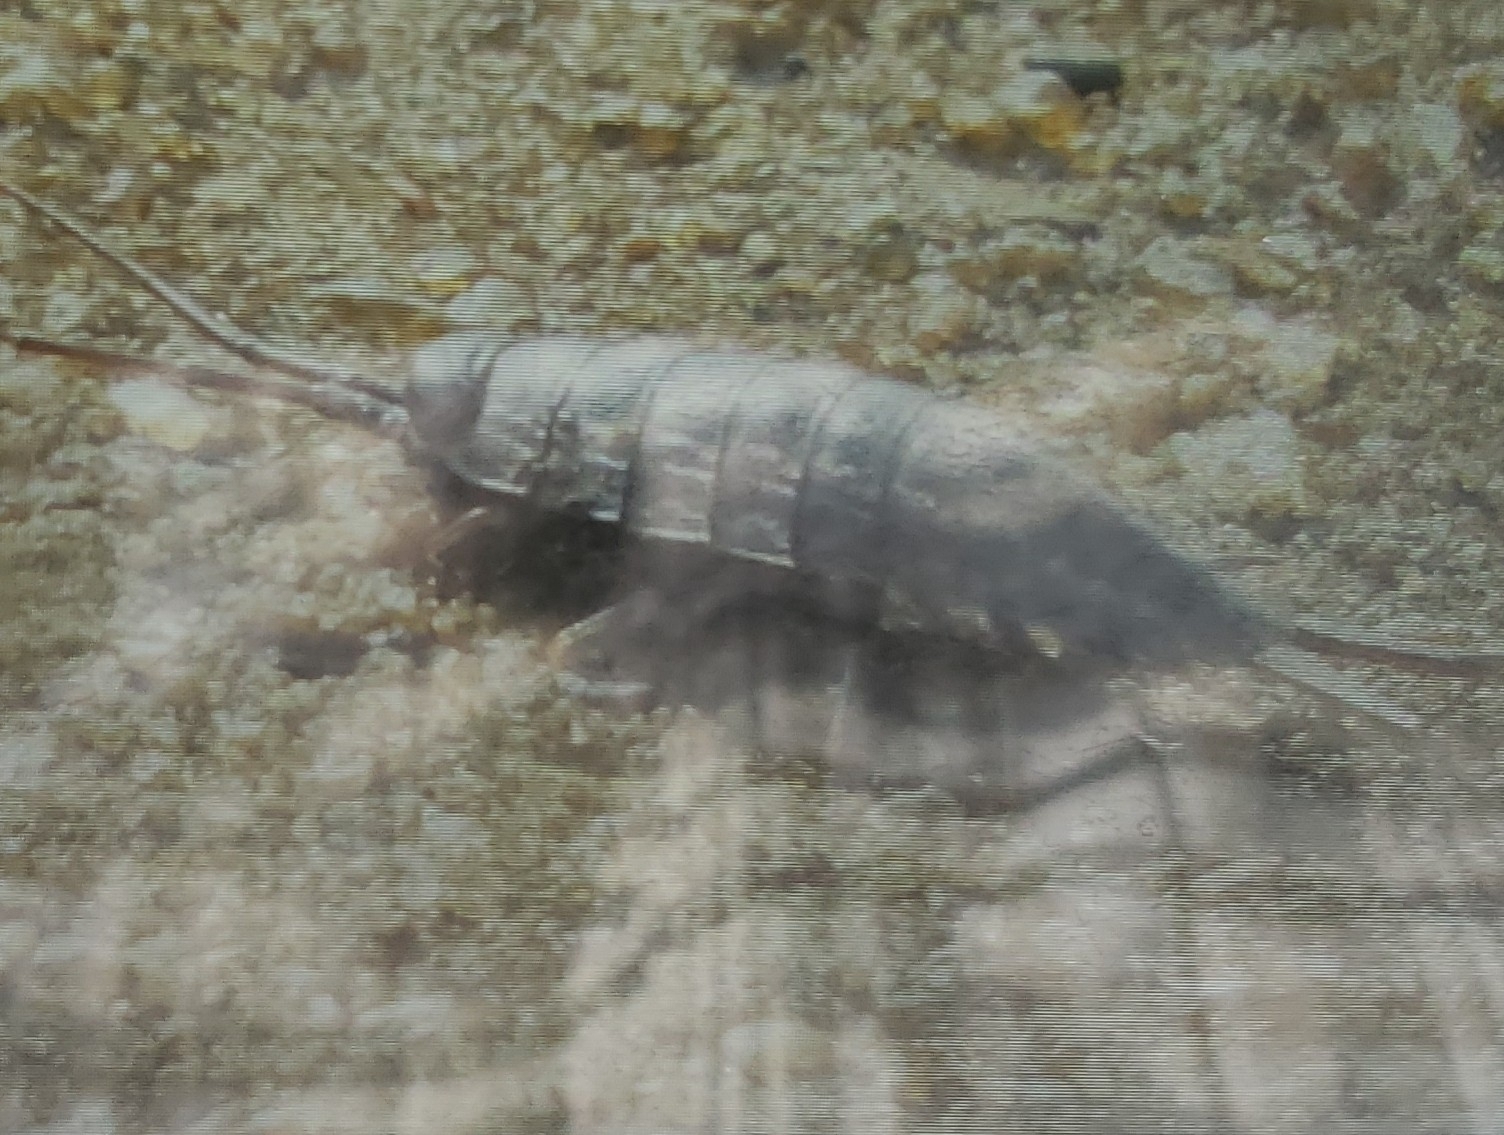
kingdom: Animalia
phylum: Arthropoda
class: Malacostraca
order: Isopoda
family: Ligiidae
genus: Ligia
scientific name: Ligia exotica
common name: Wharf roach
